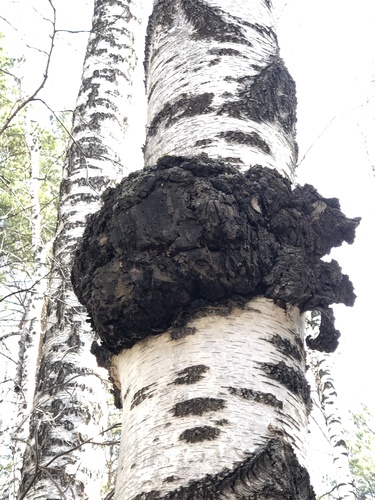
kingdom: Fungi
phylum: Basidiomycota
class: Agaricomycetes
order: Hymenochaetales
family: Hymenochaetaceae
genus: Inonotus
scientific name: Inonotus obliquus
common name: Chaga
